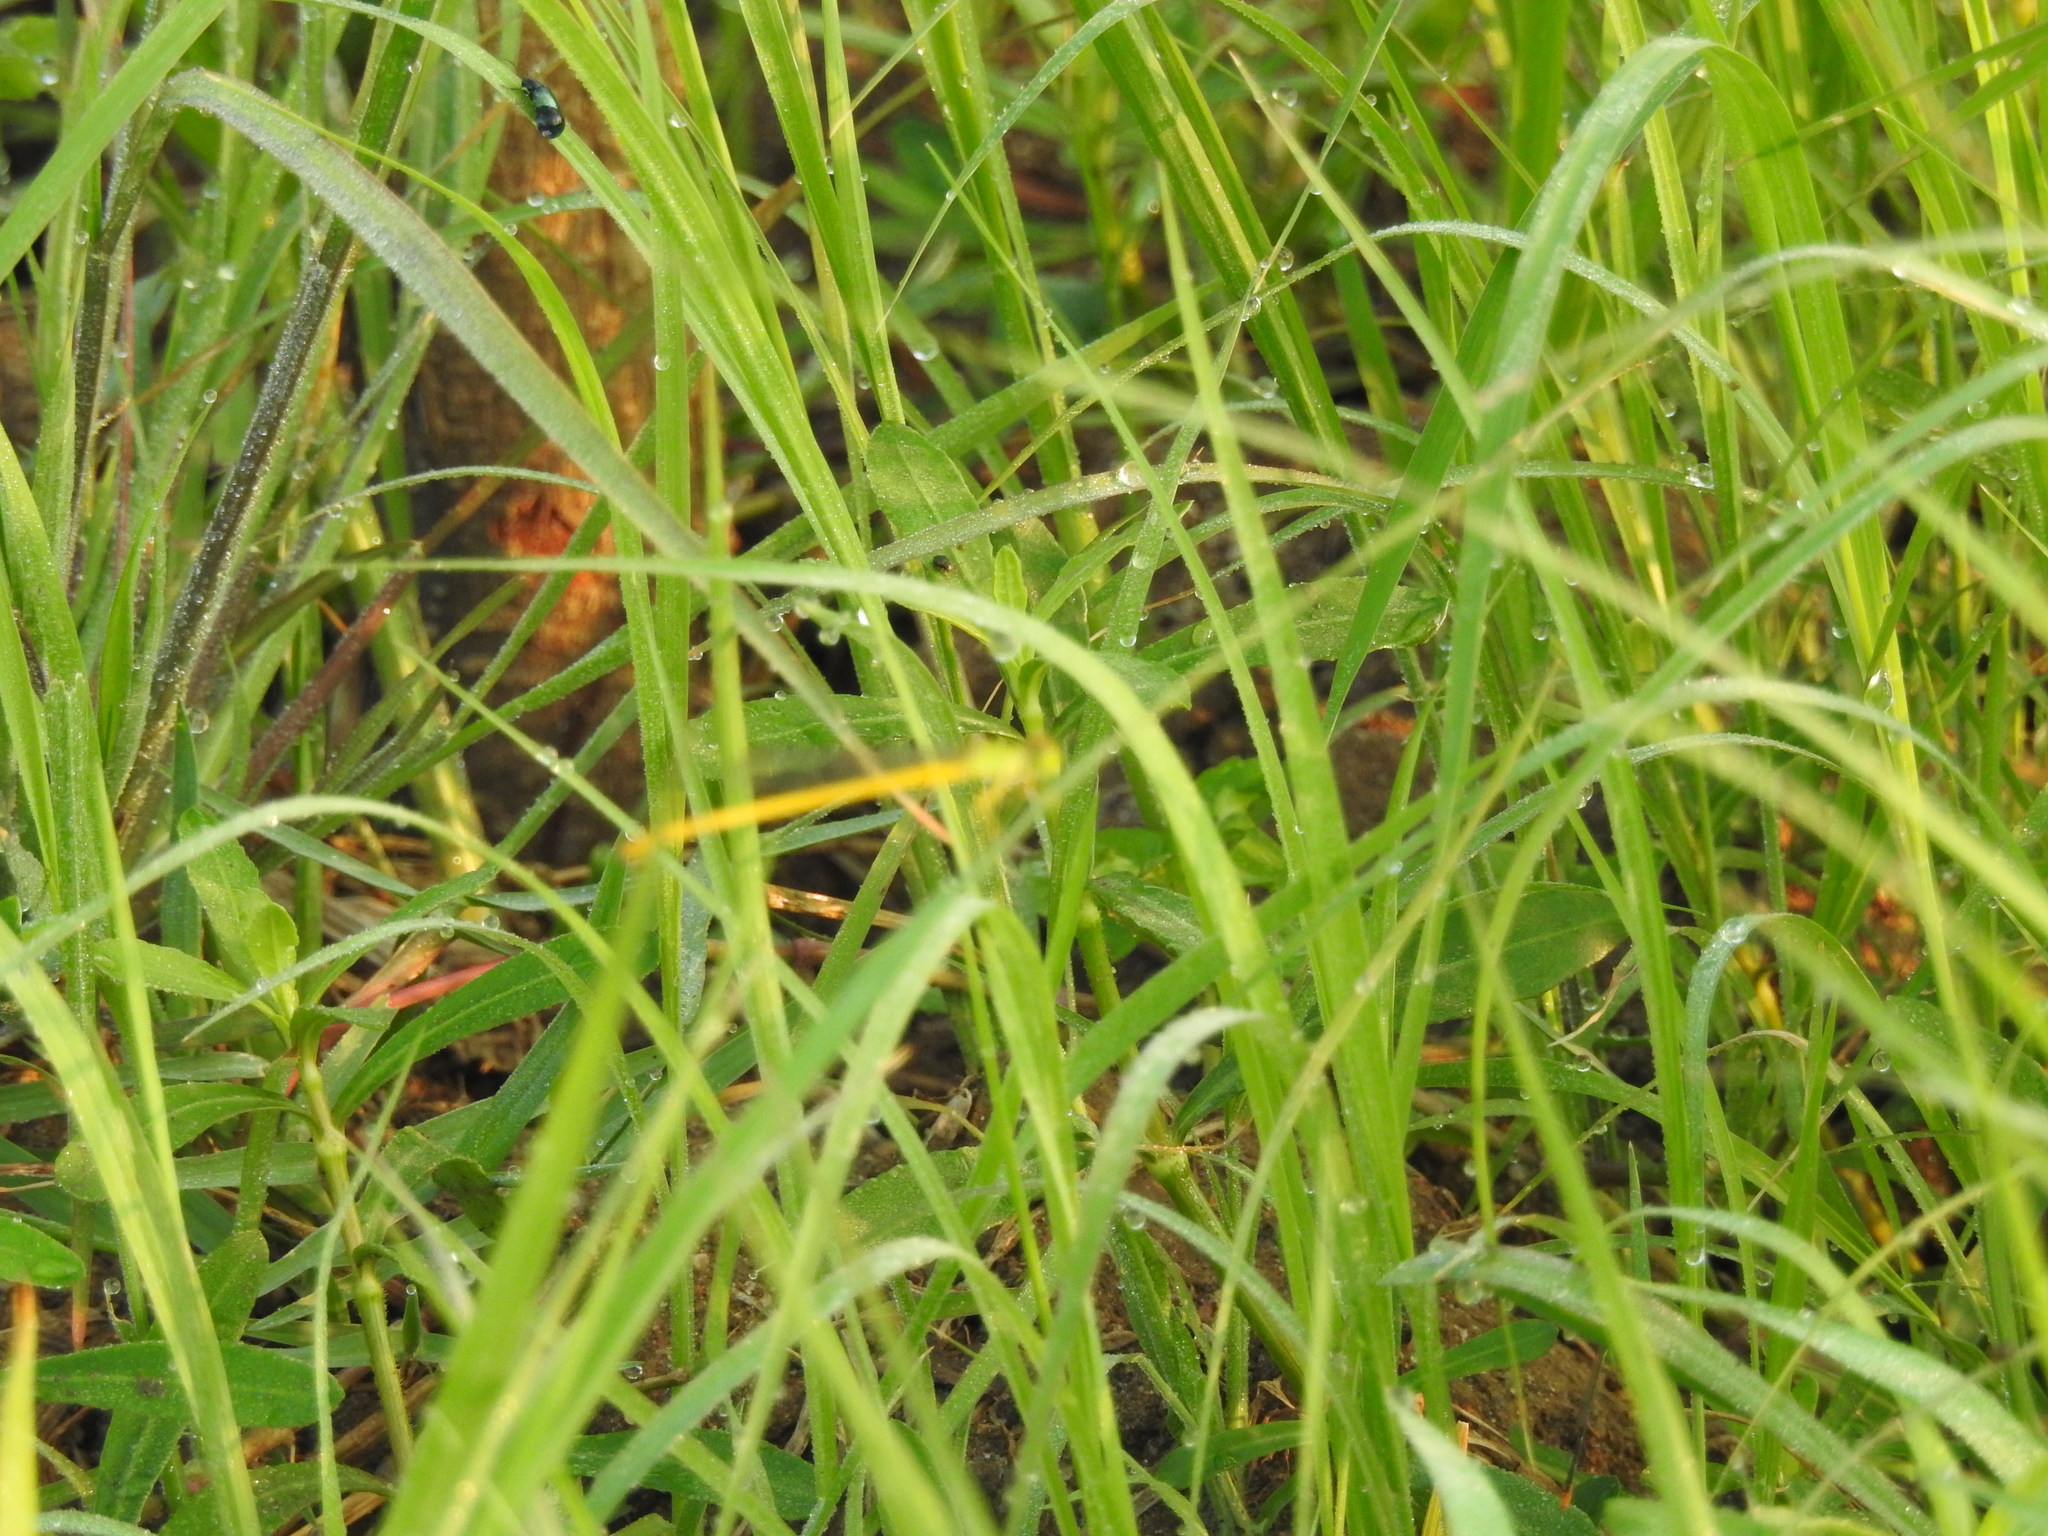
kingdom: Animalia
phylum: Arthropoda
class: Insecta
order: Odonata
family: Coenagrionidae
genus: Ceriagrion
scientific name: Ceriagrion coromandelianum
